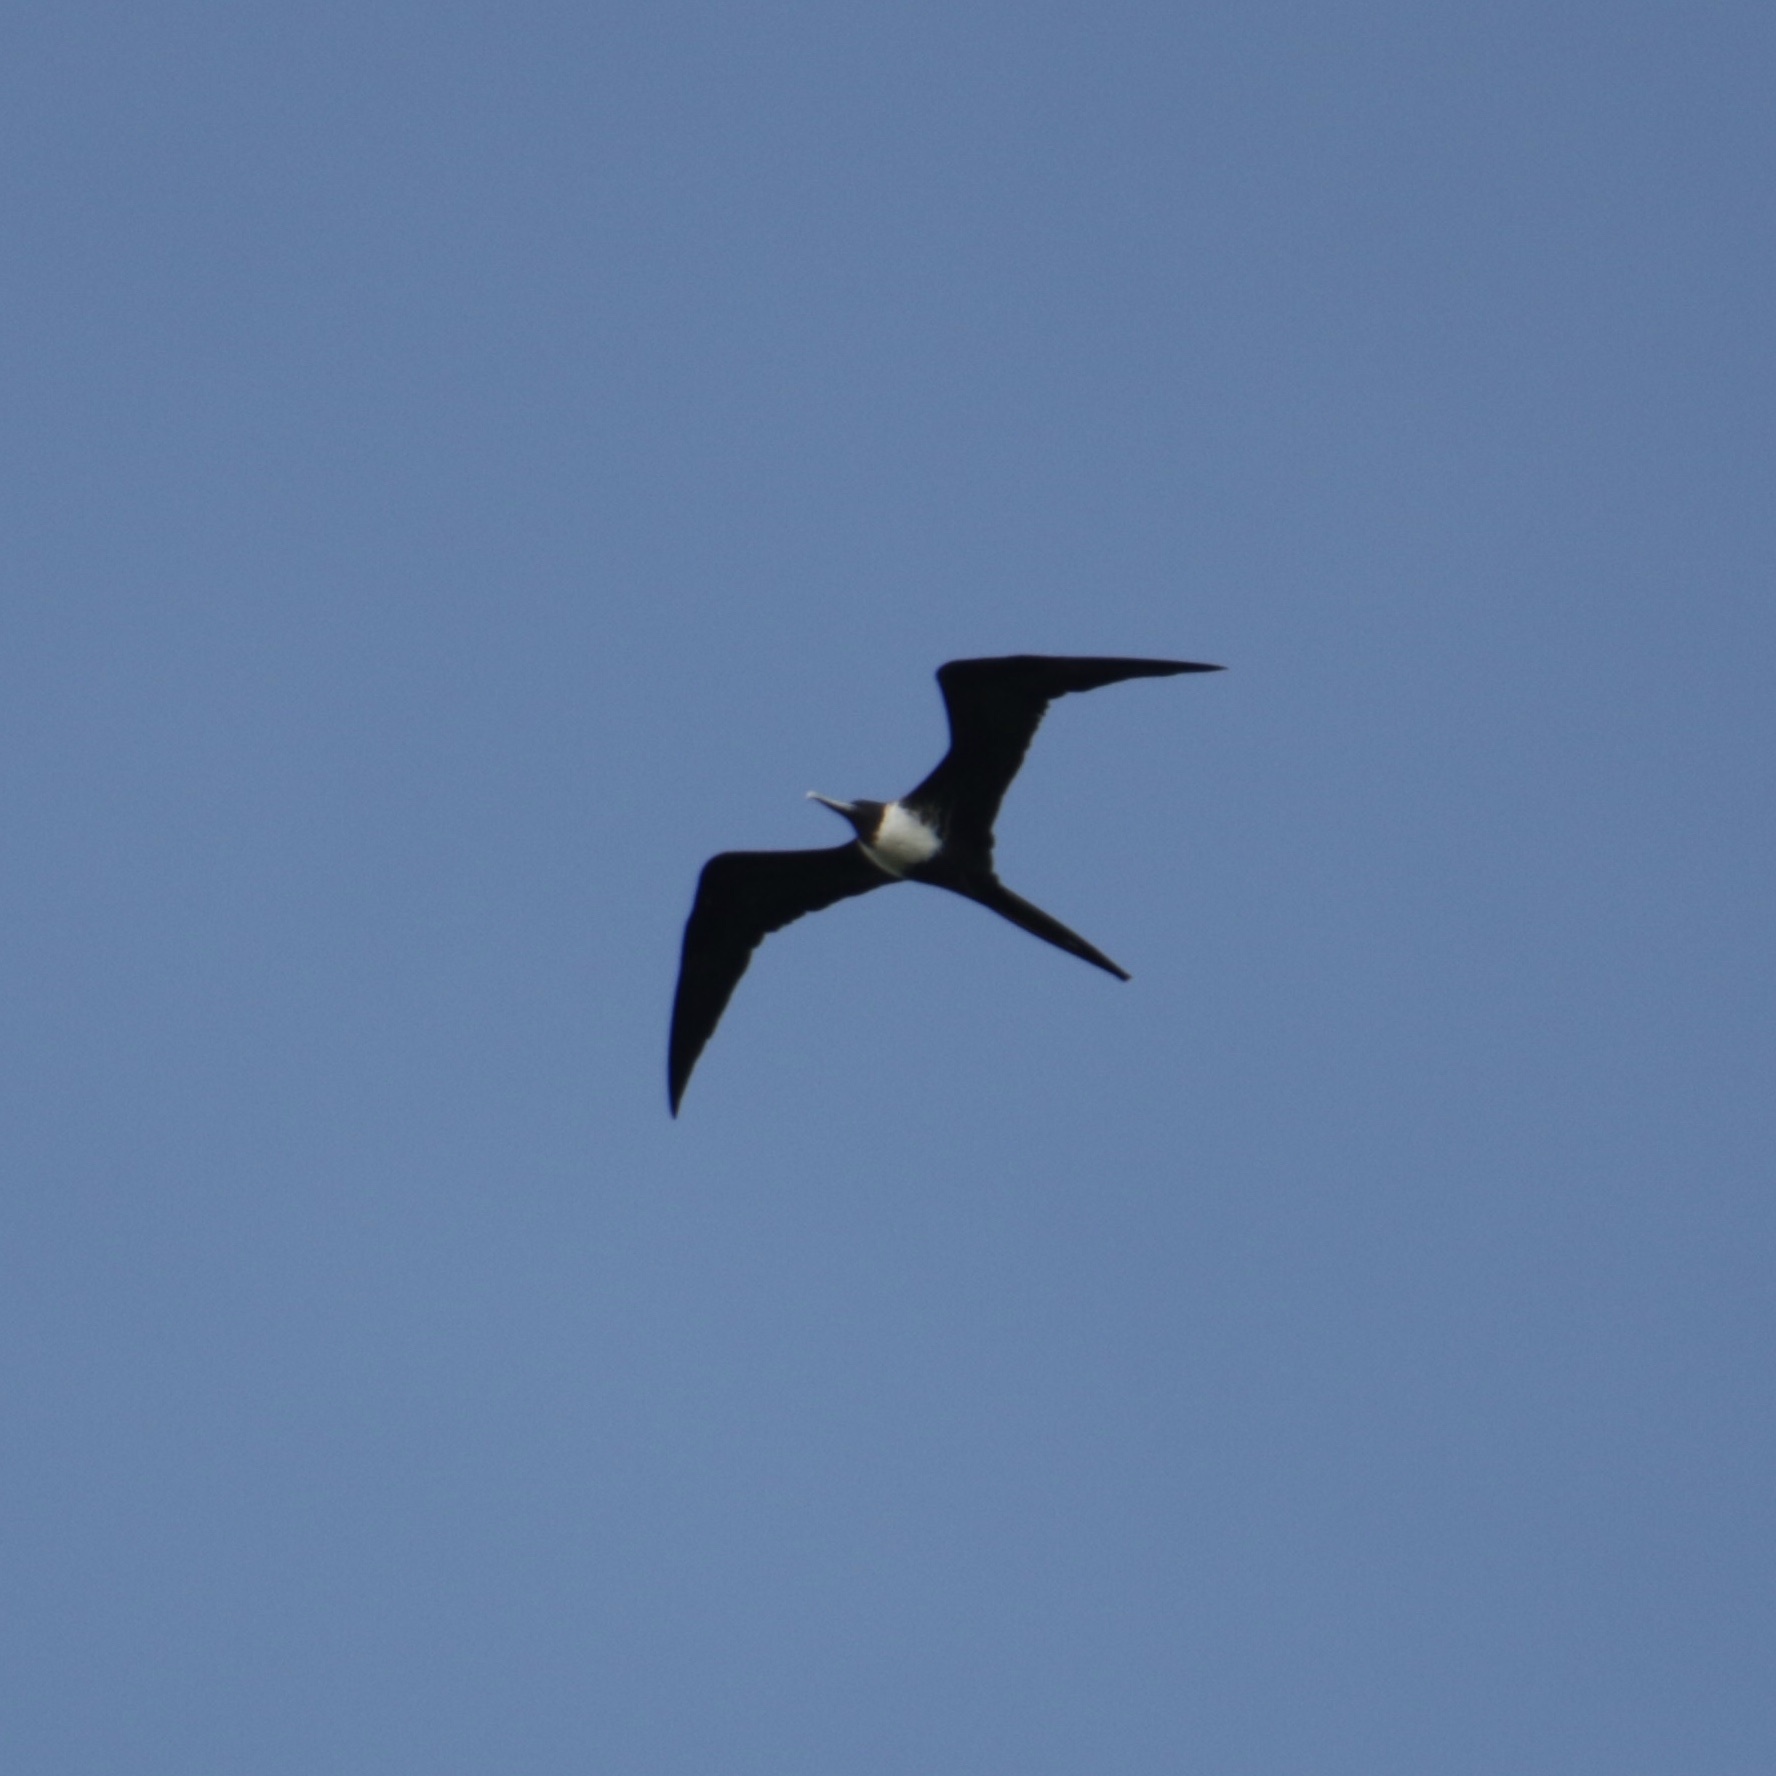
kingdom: Animalia
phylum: Chordata
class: Aves
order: Suliformes
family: Fregatidae
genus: Fregata
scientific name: Fregata magnificens
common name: Magnificent frigatebird
